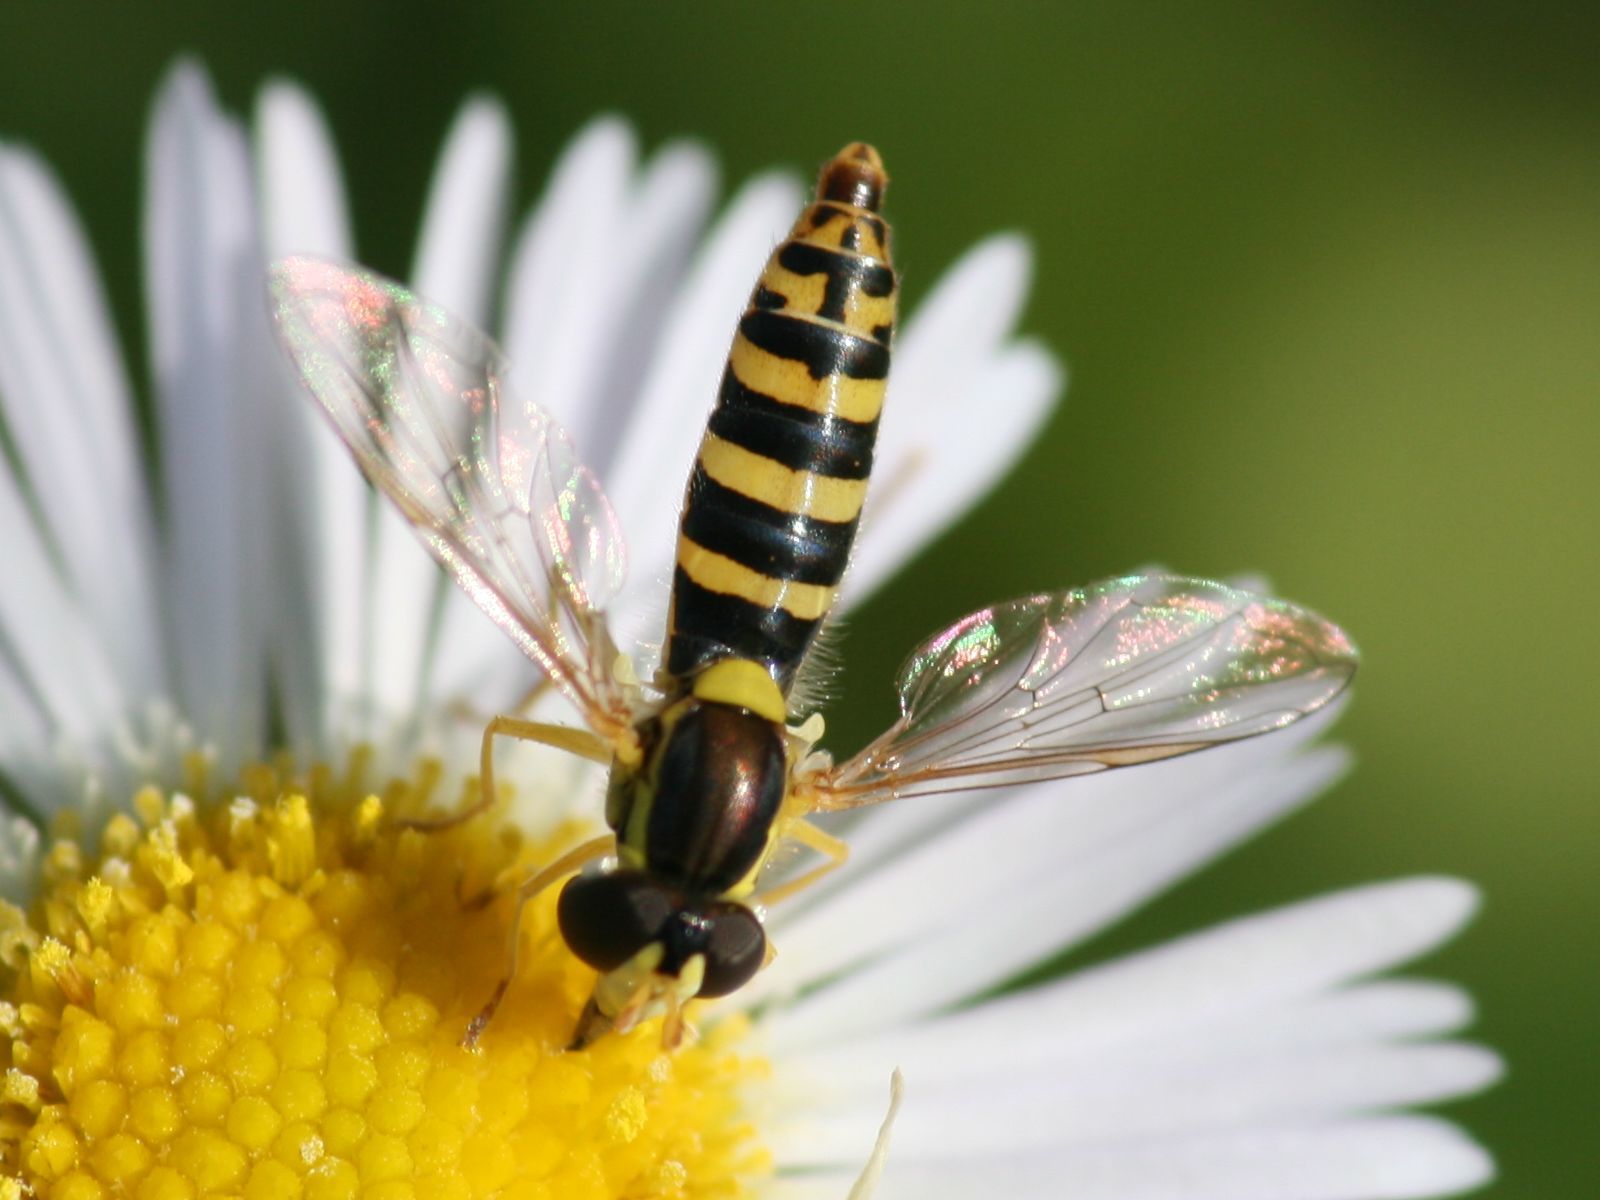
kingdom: Animalia
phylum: Arthropoda
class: Insecta
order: Diptera
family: Syrphidae
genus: Sphaerophoria
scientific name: Sphaerophoria
